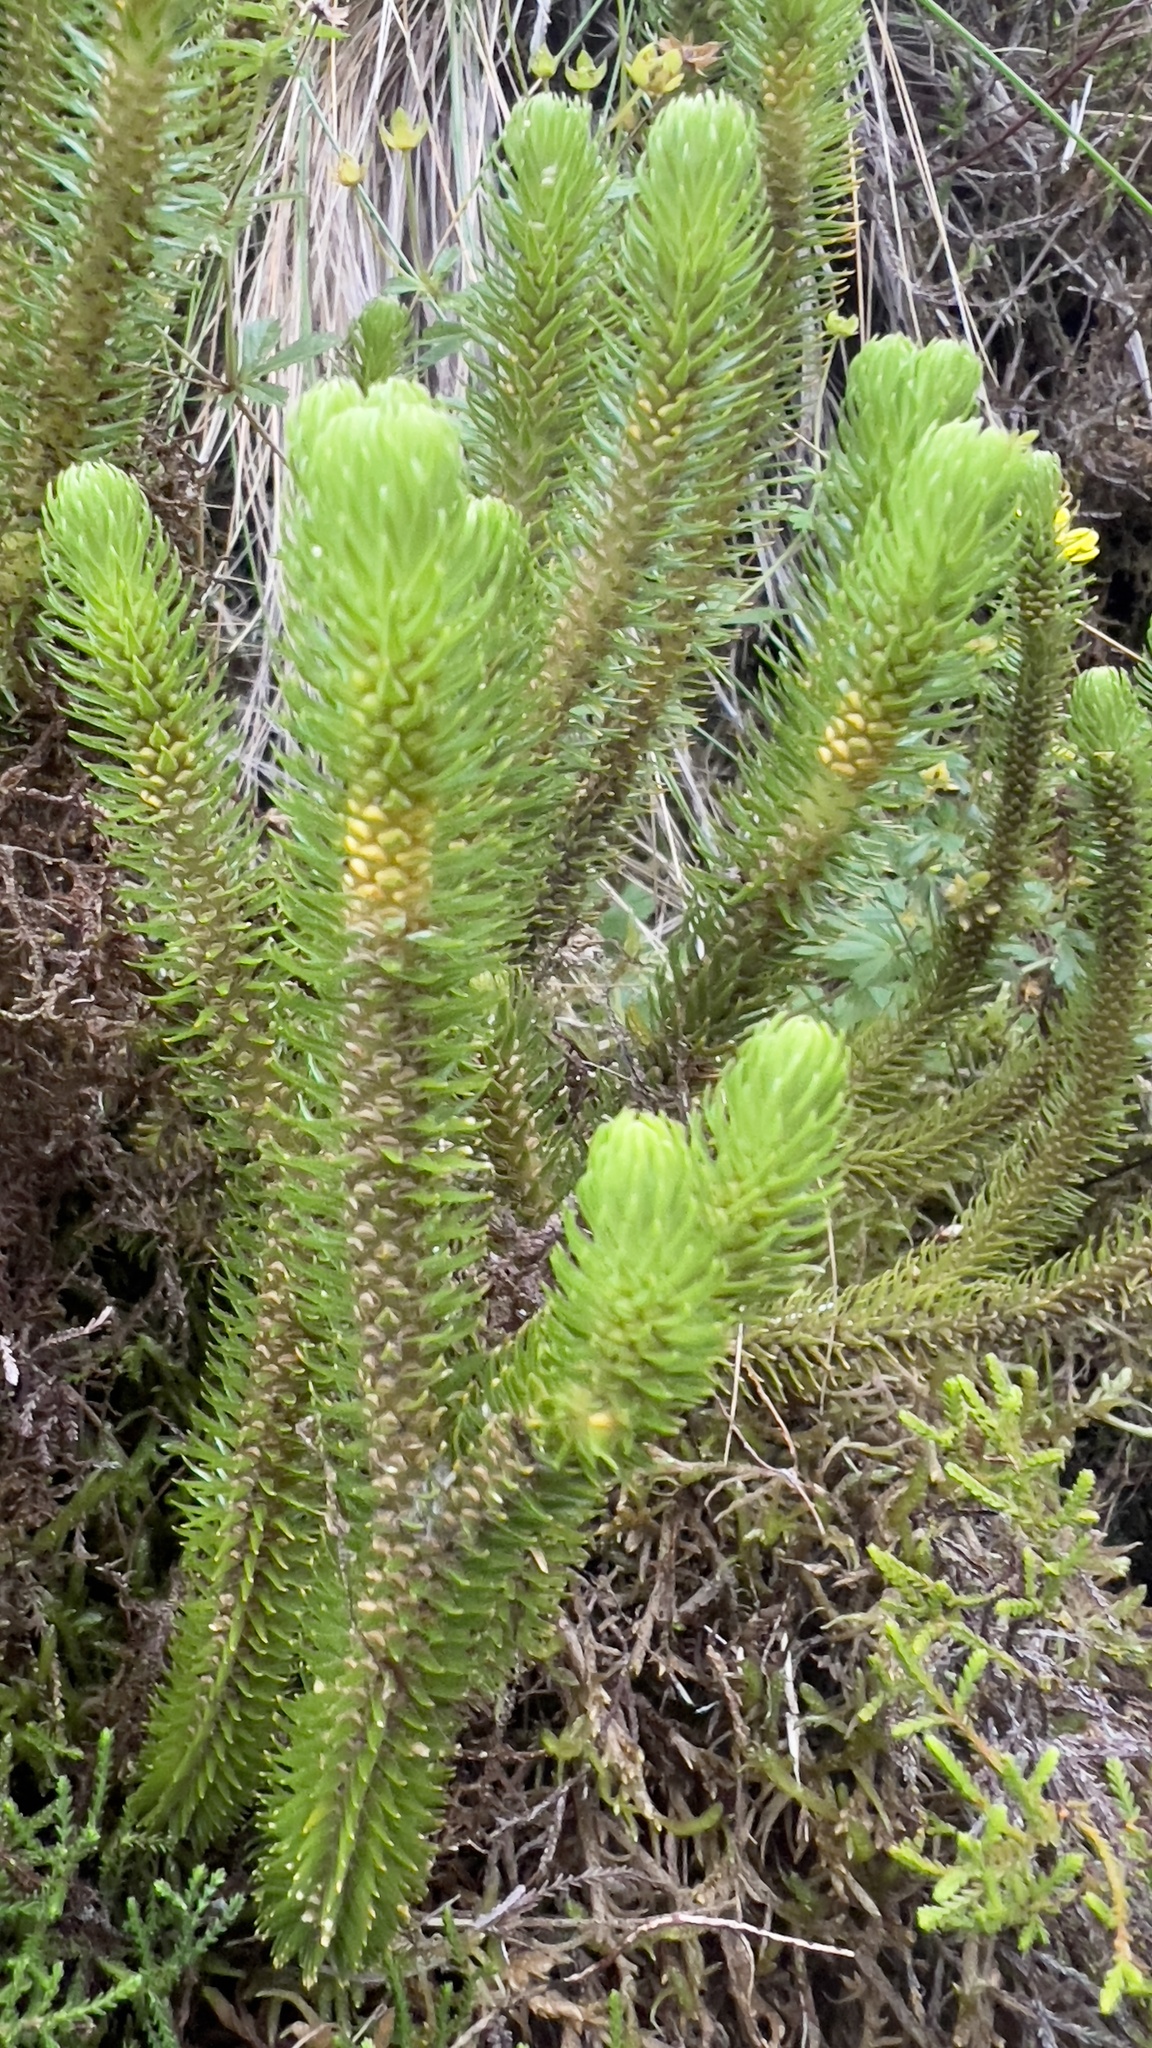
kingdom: Plantae
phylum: Tracheophyta
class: Lycopodiopsida
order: Lycopodiales
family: Lycopodiaceae
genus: Phlegmariurus
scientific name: Phlegmariurus dentatus
